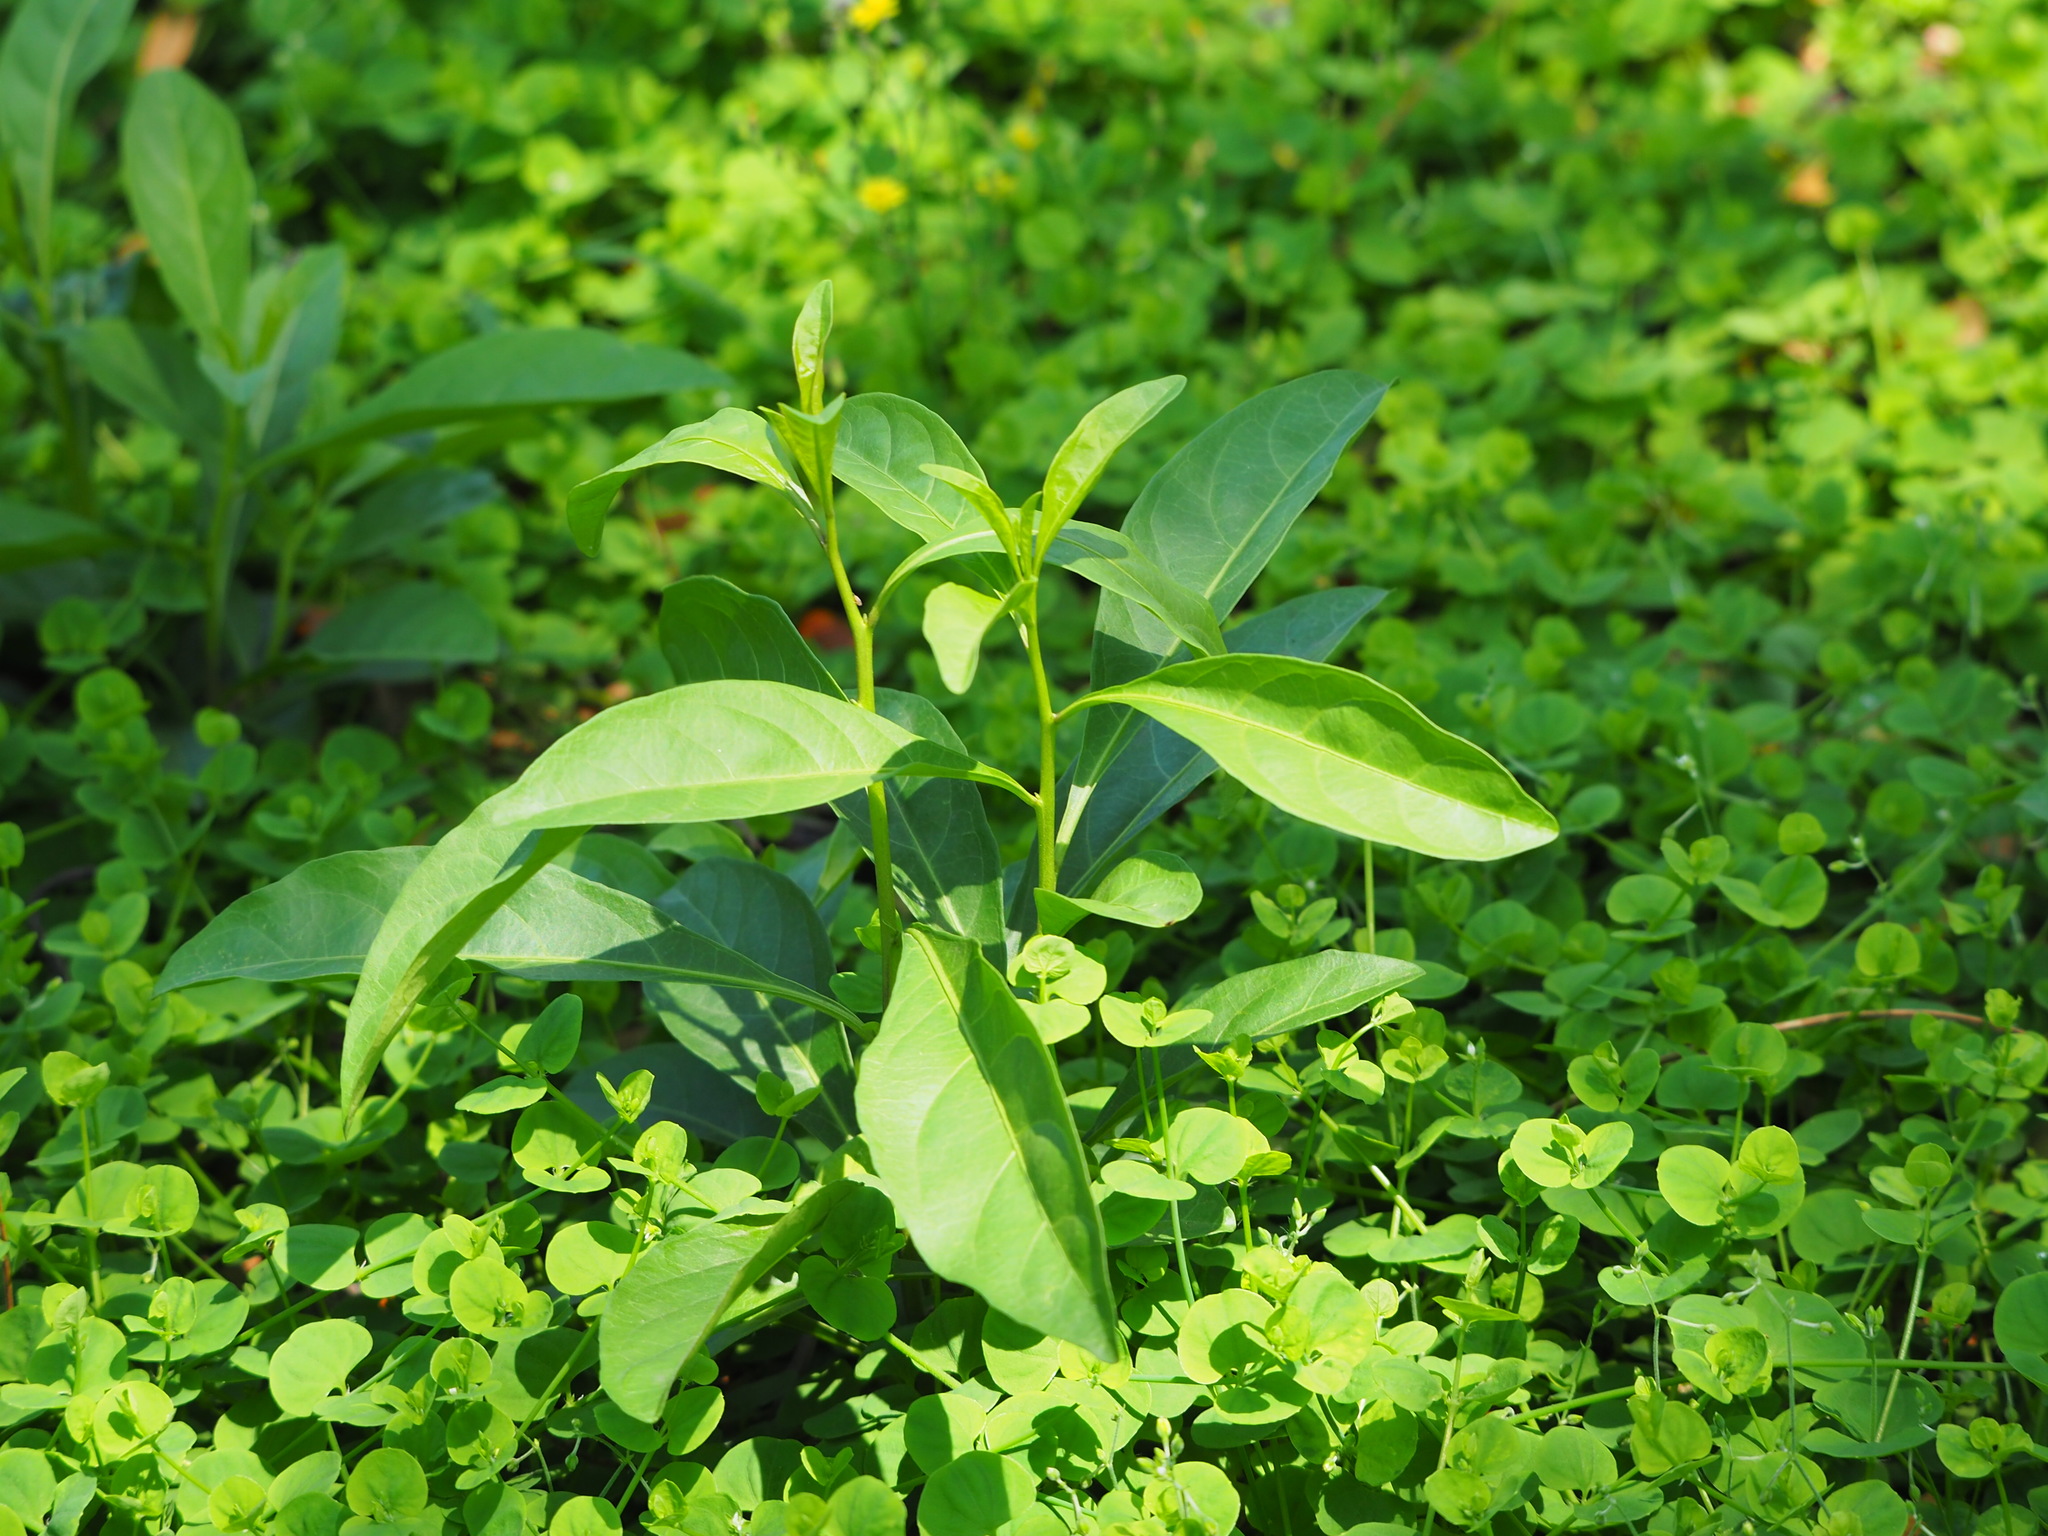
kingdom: Plantae
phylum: Tracheophyta
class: Magnoliopsida
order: Solanales
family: Solanaceae
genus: Solanum
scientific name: Solanum diphyllum
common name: Twoleaf nightshade
